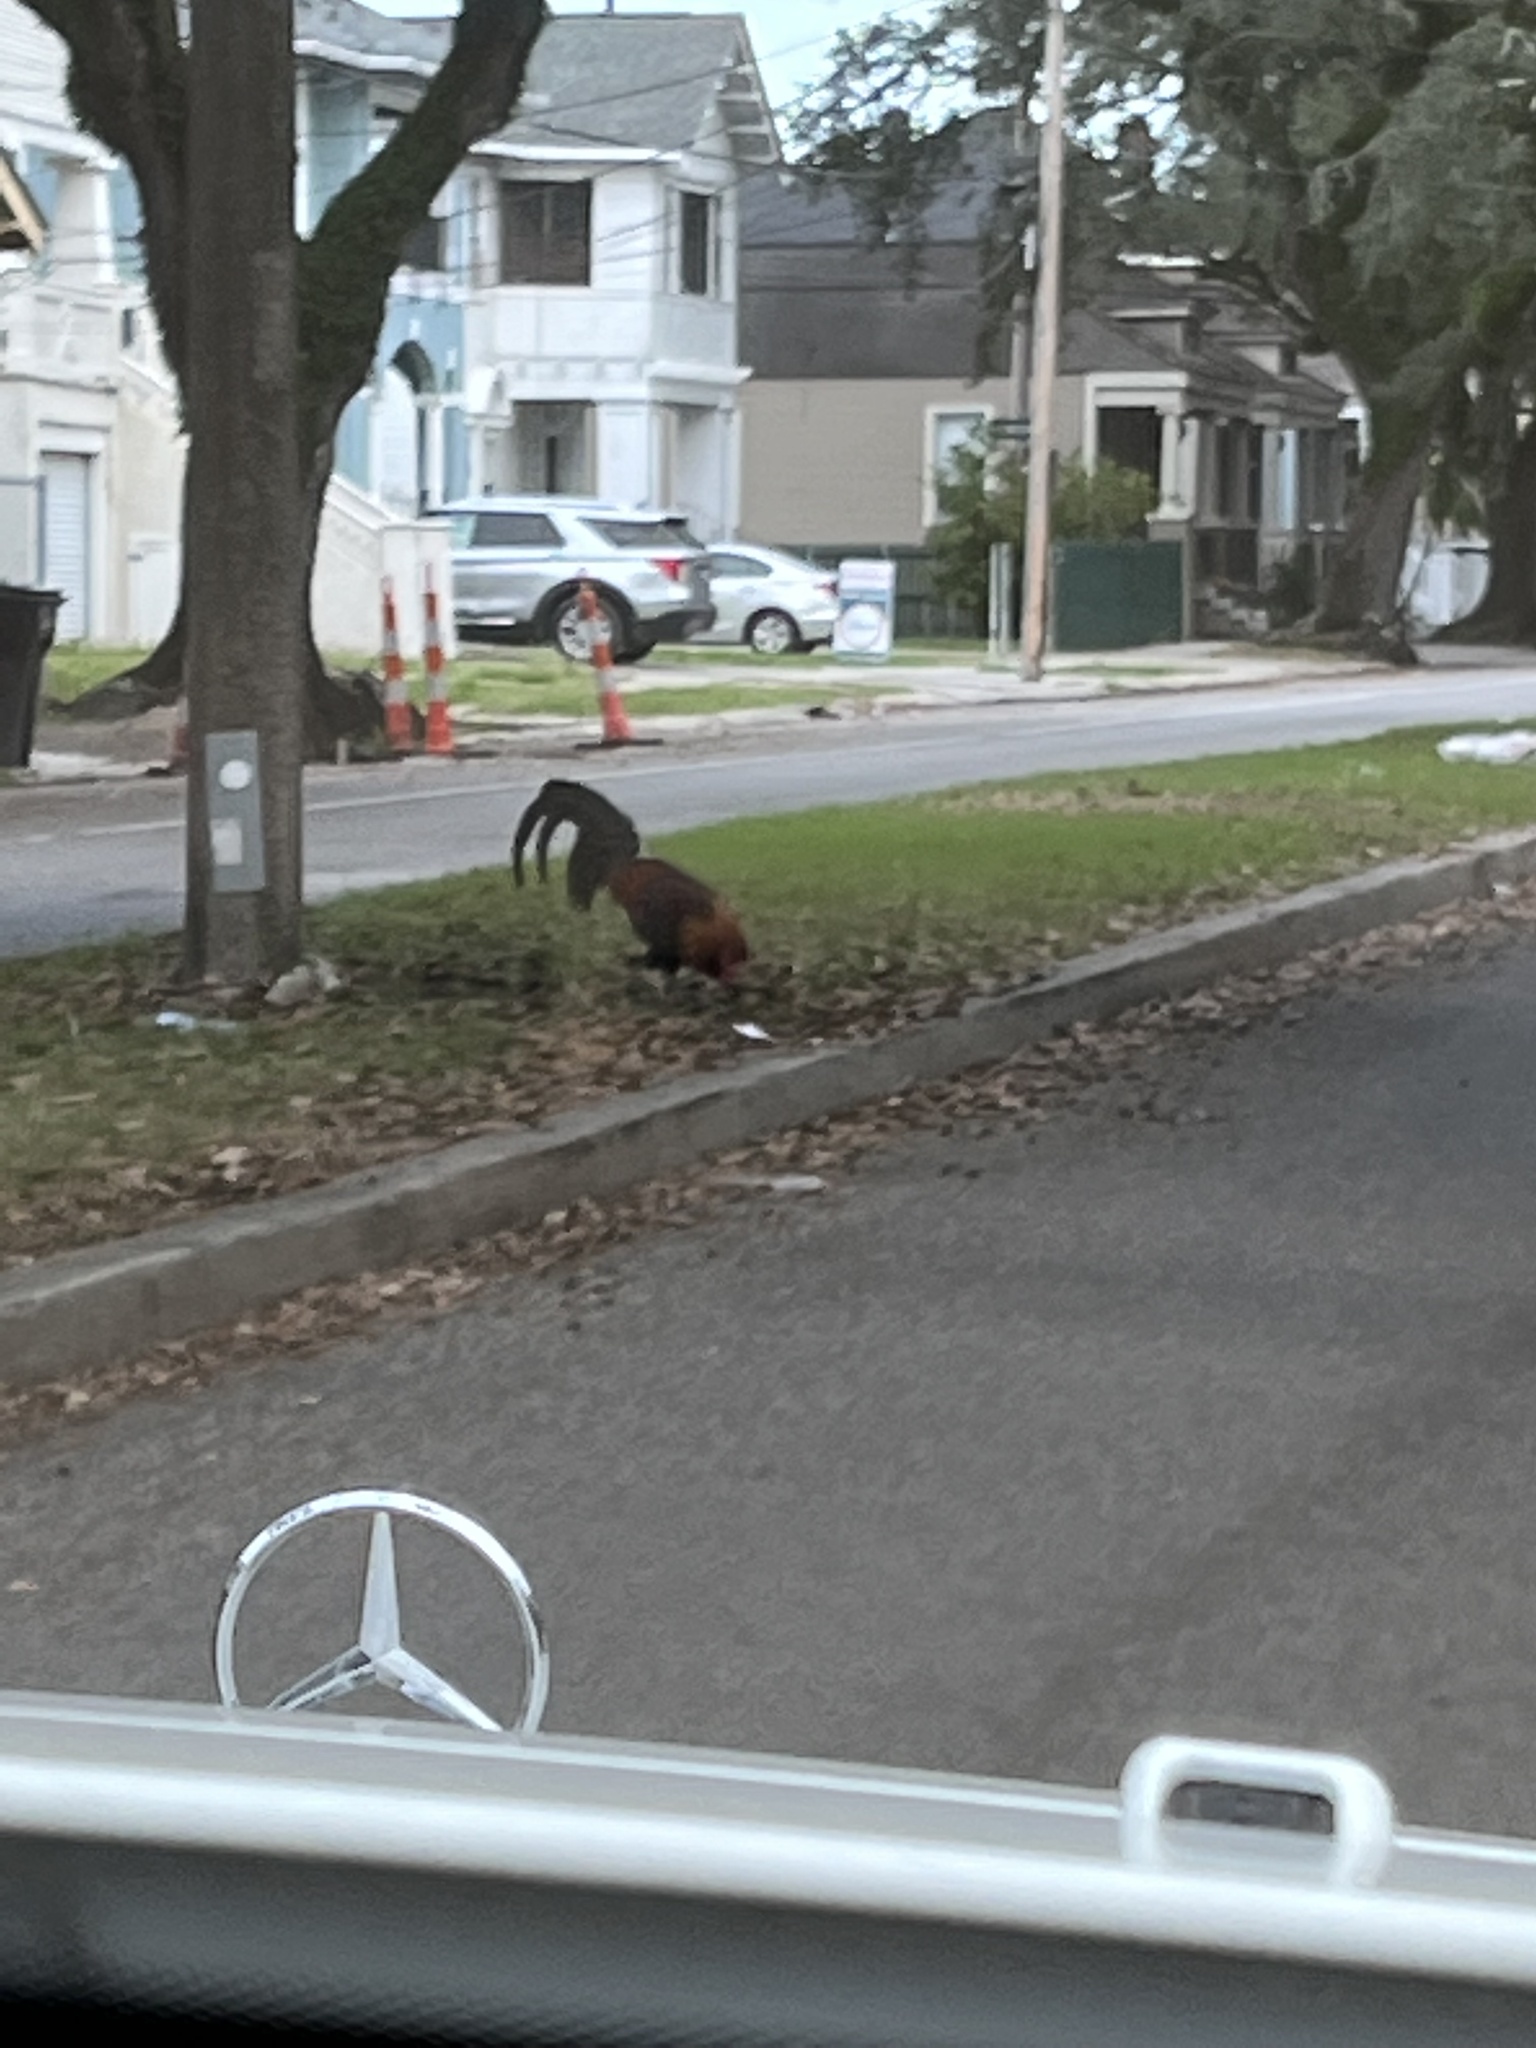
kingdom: Animalia
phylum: Chordata
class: Aves
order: Galliformes
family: Phasianidae
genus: Gallus
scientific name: Gallus gallus
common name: Red junglefowl
